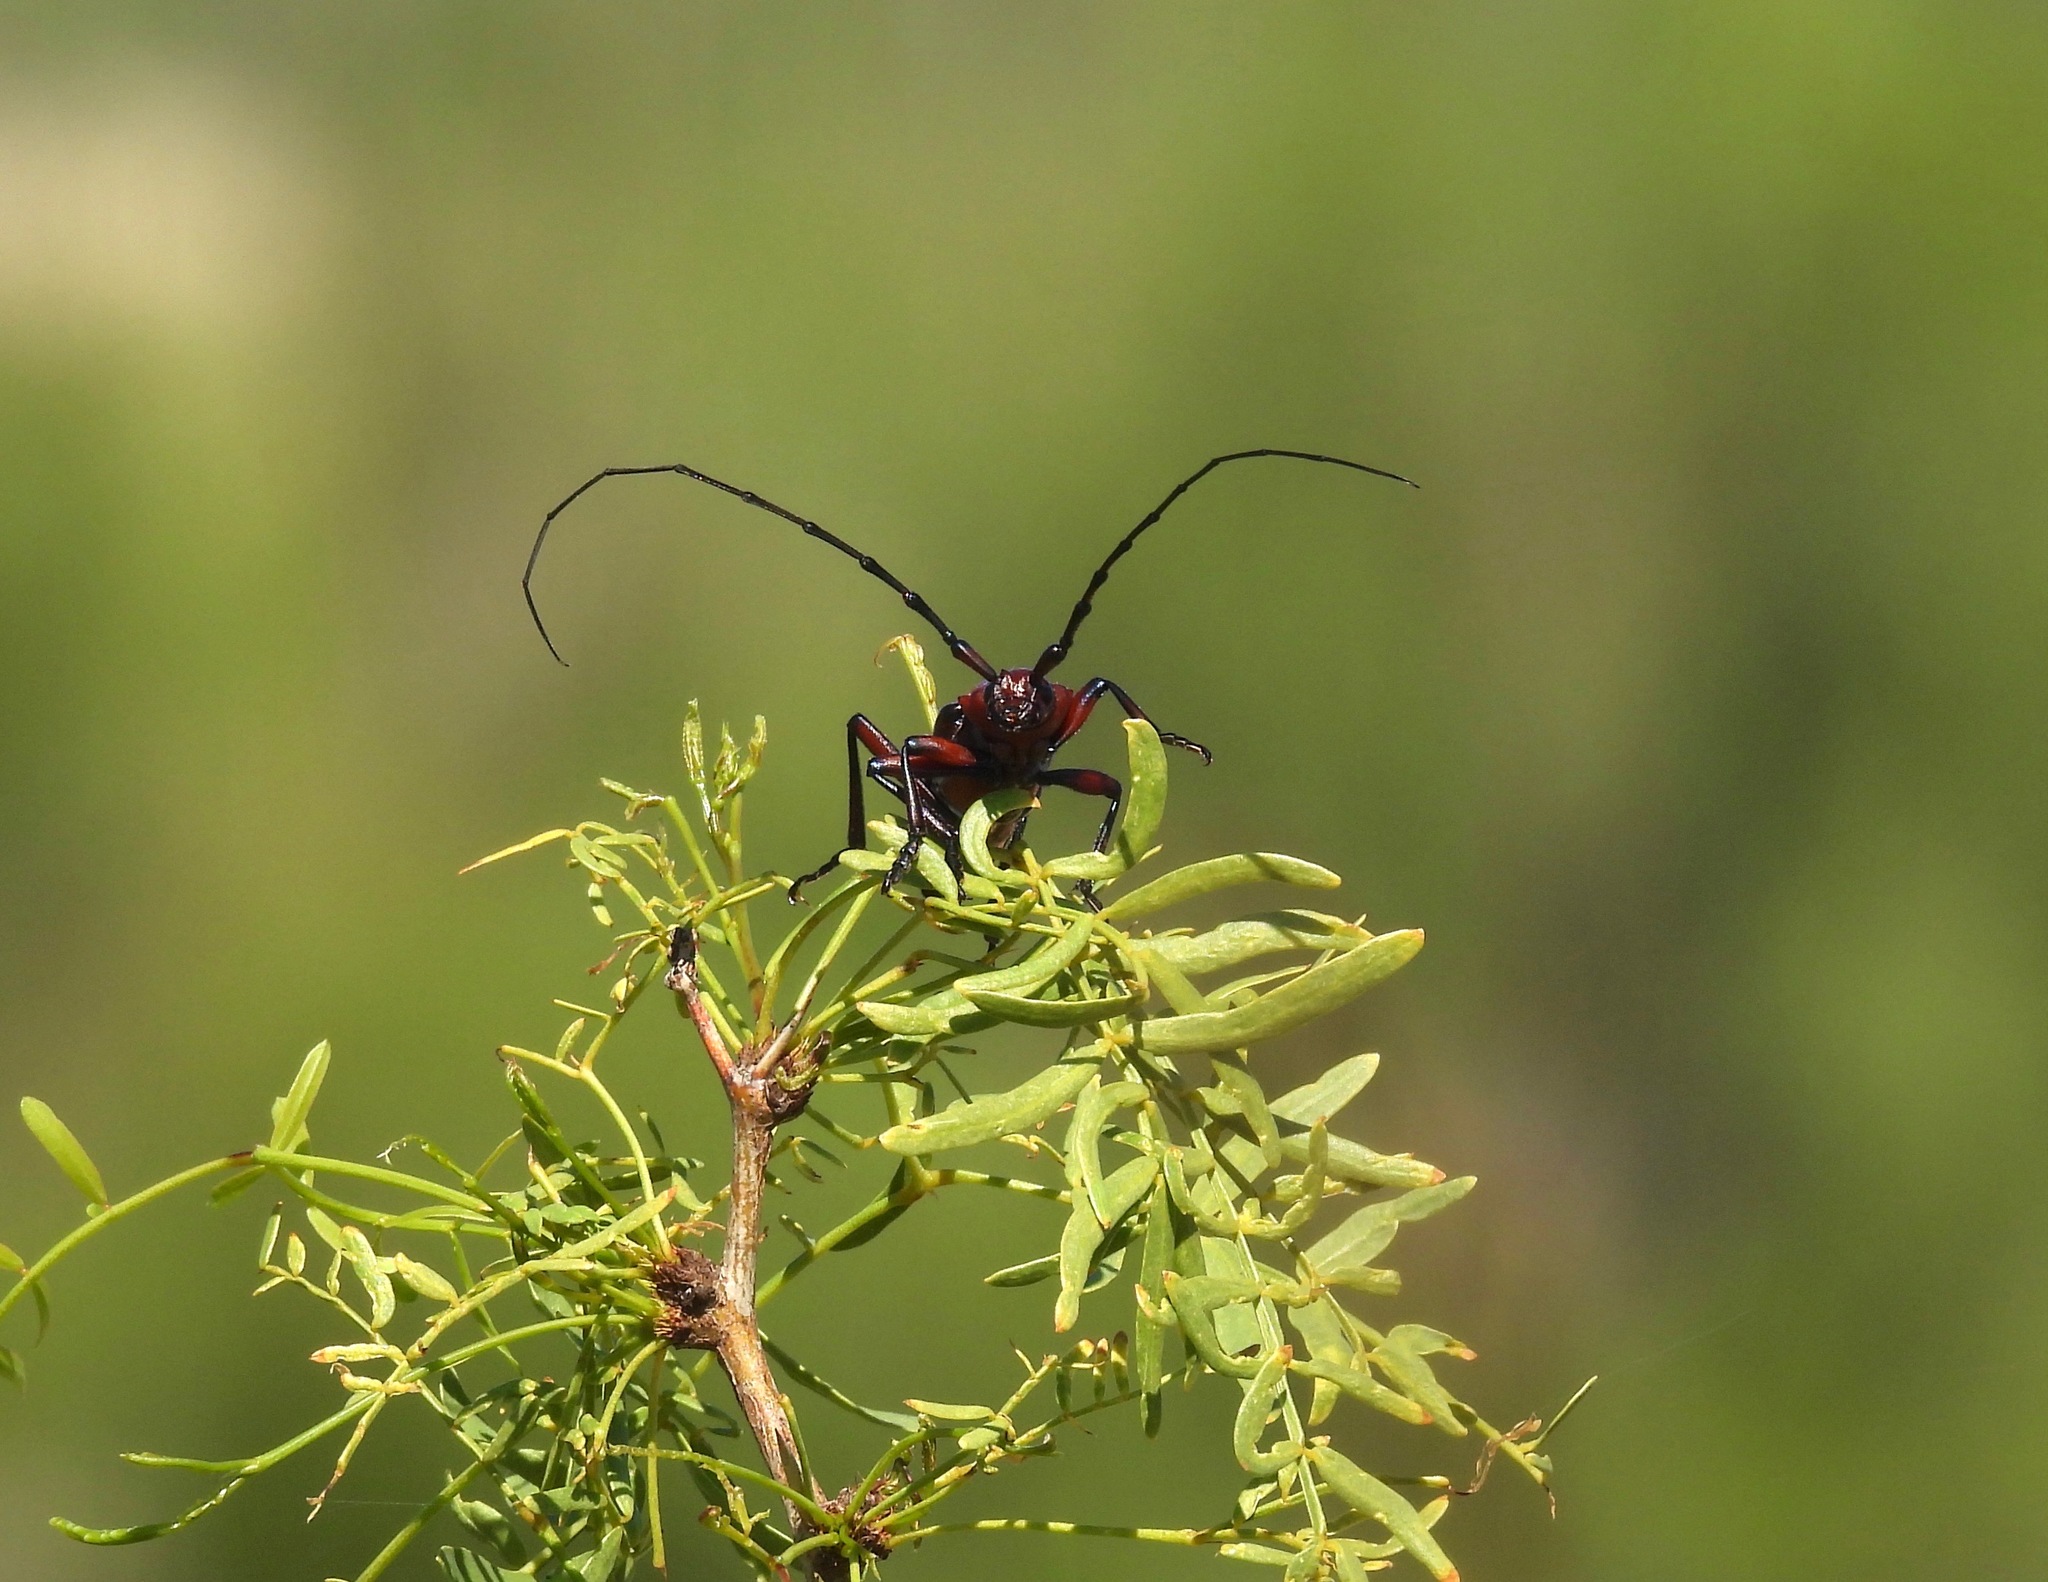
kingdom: Animalia
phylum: Arthropoda
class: Insecta
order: Coleoptera
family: Cerambycidae
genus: Stenaspis
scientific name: Stenaspis solitaria
